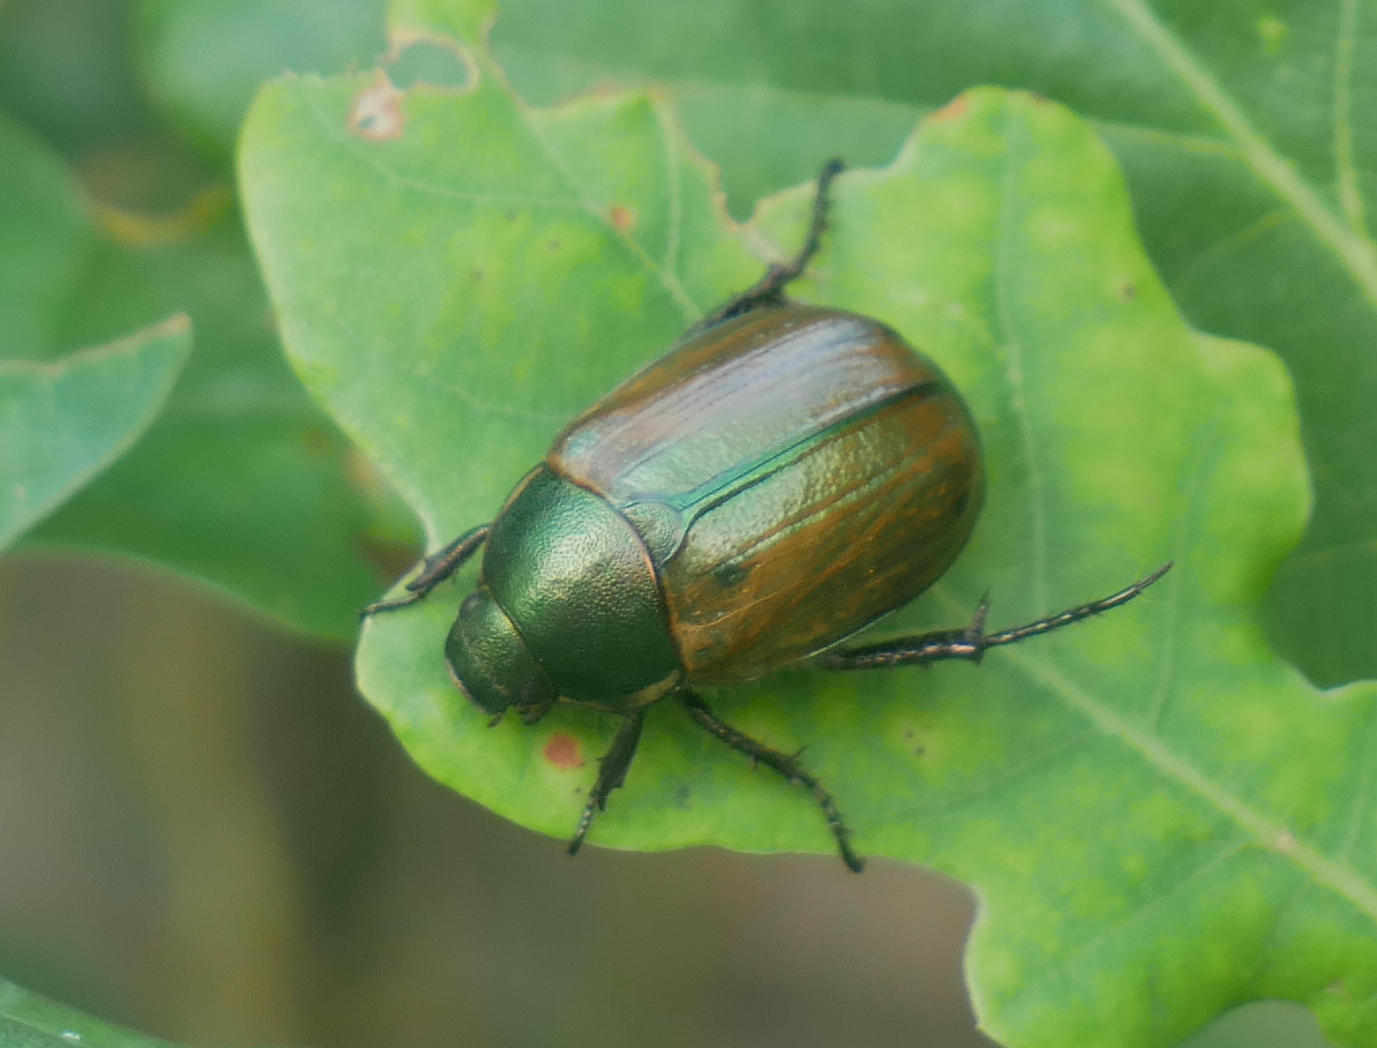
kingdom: Animalia
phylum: Arthropoda
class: Insecta
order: Coleoptera
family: Scarabaeidae
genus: Anomala
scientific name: Anomala dubia
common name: Dune chafer
